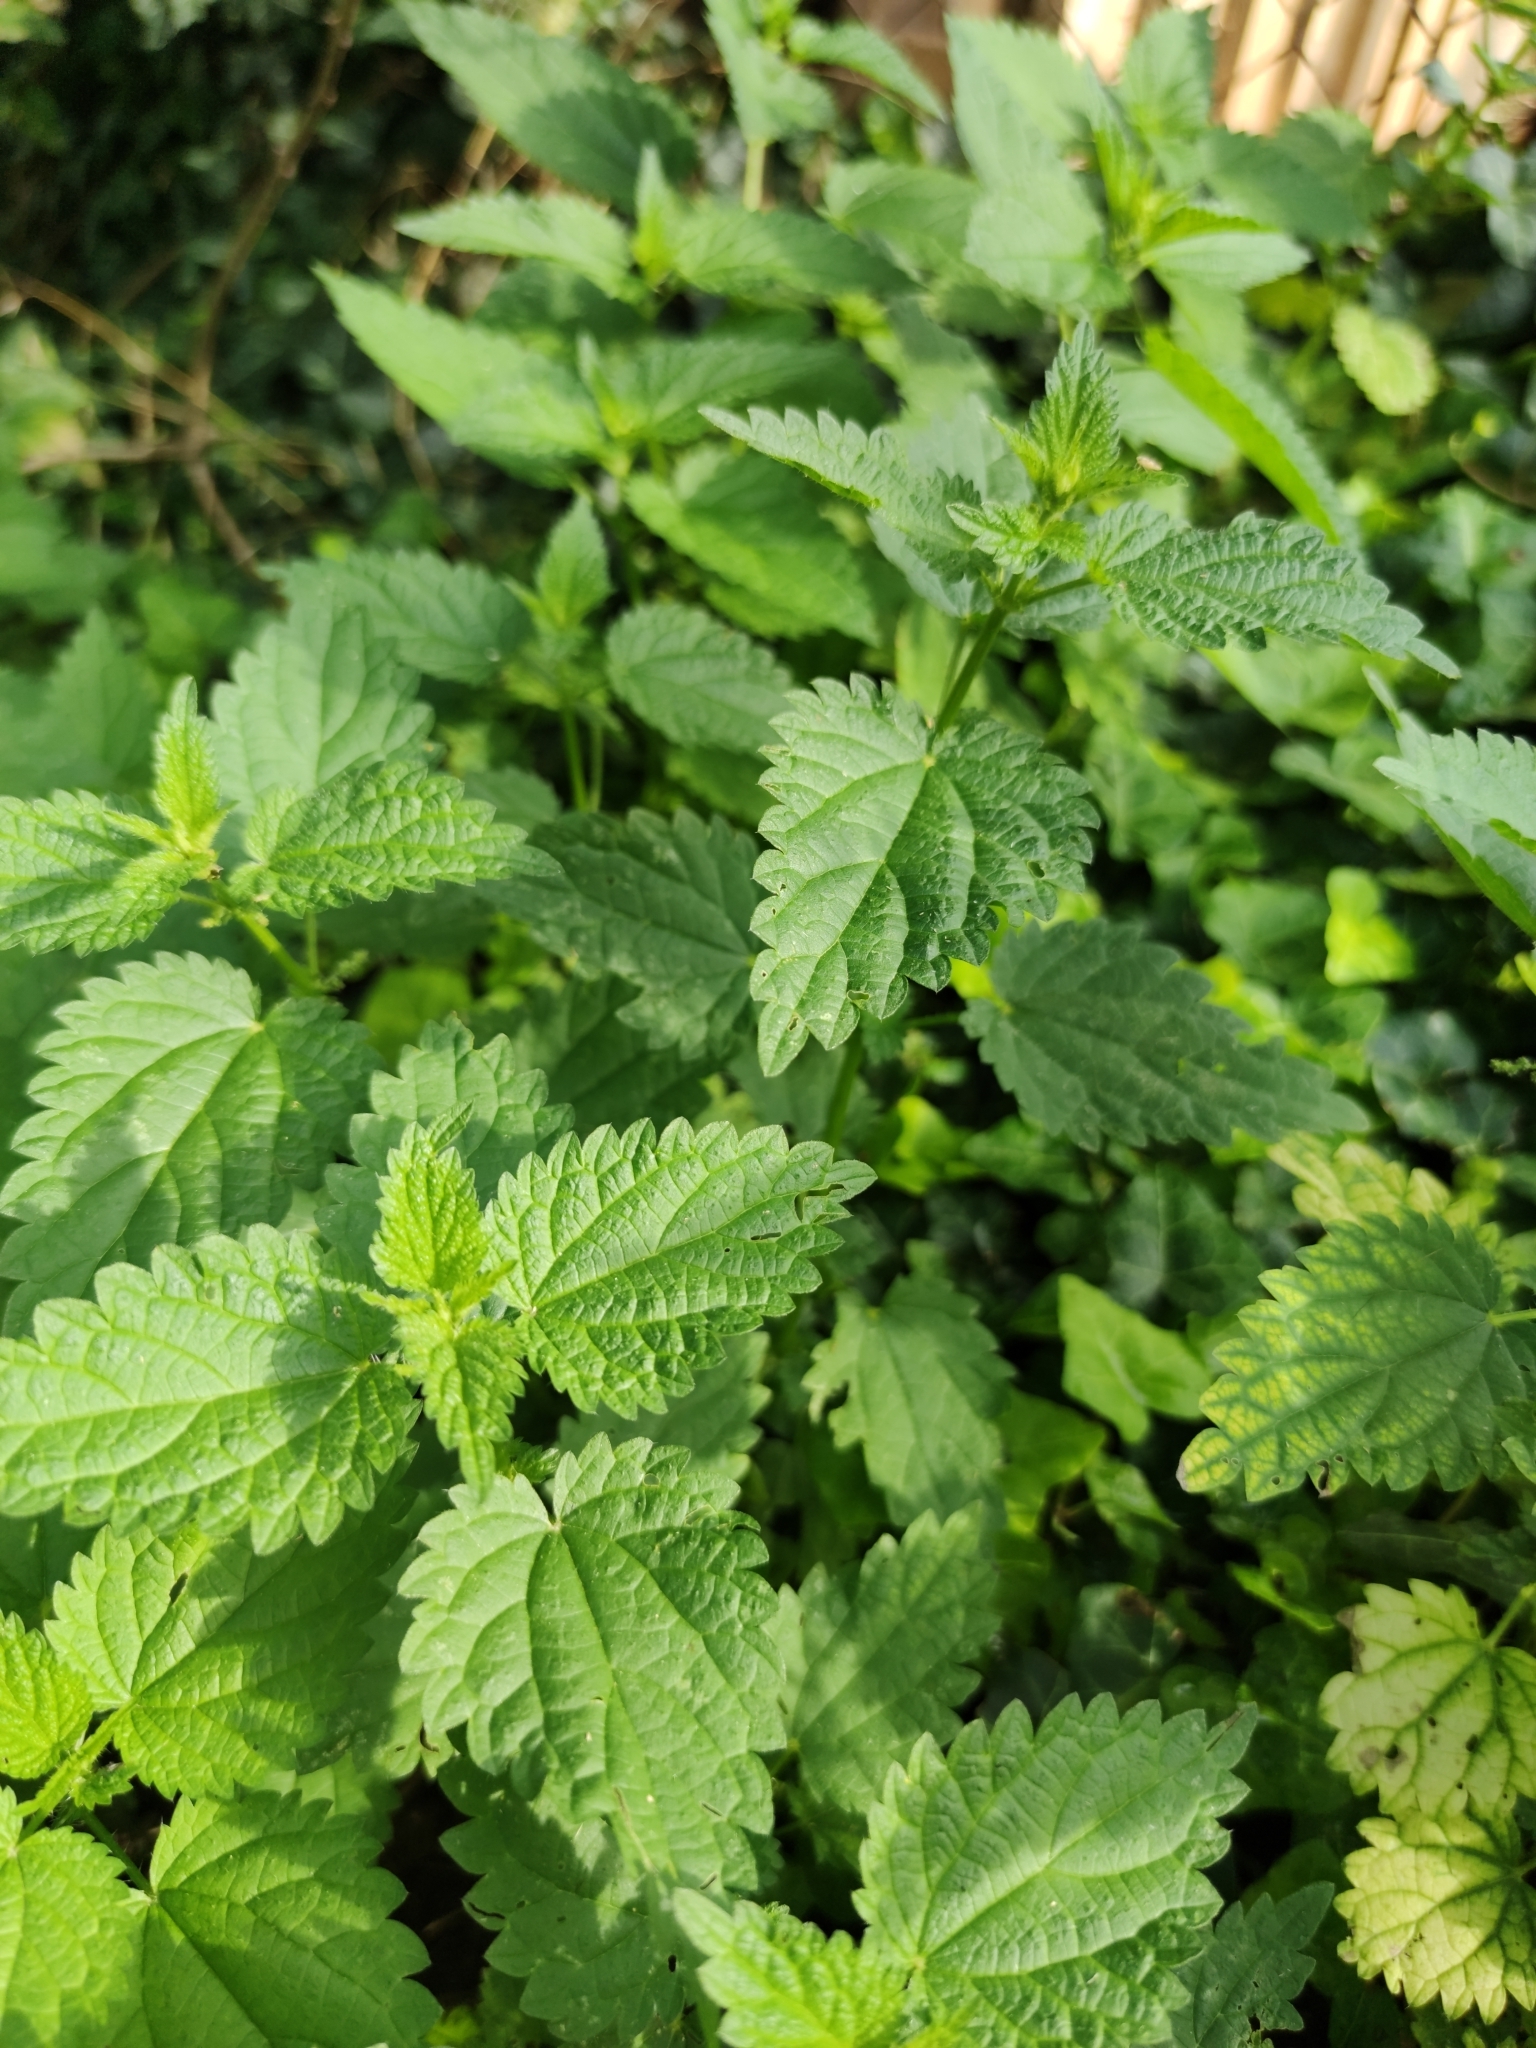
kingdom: Plantae
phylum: Tracheophyta
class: Magnoliopsida
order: Rosales
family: Urticaceae
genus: Urtica
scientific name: Urtica dioica
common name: Common nettle
